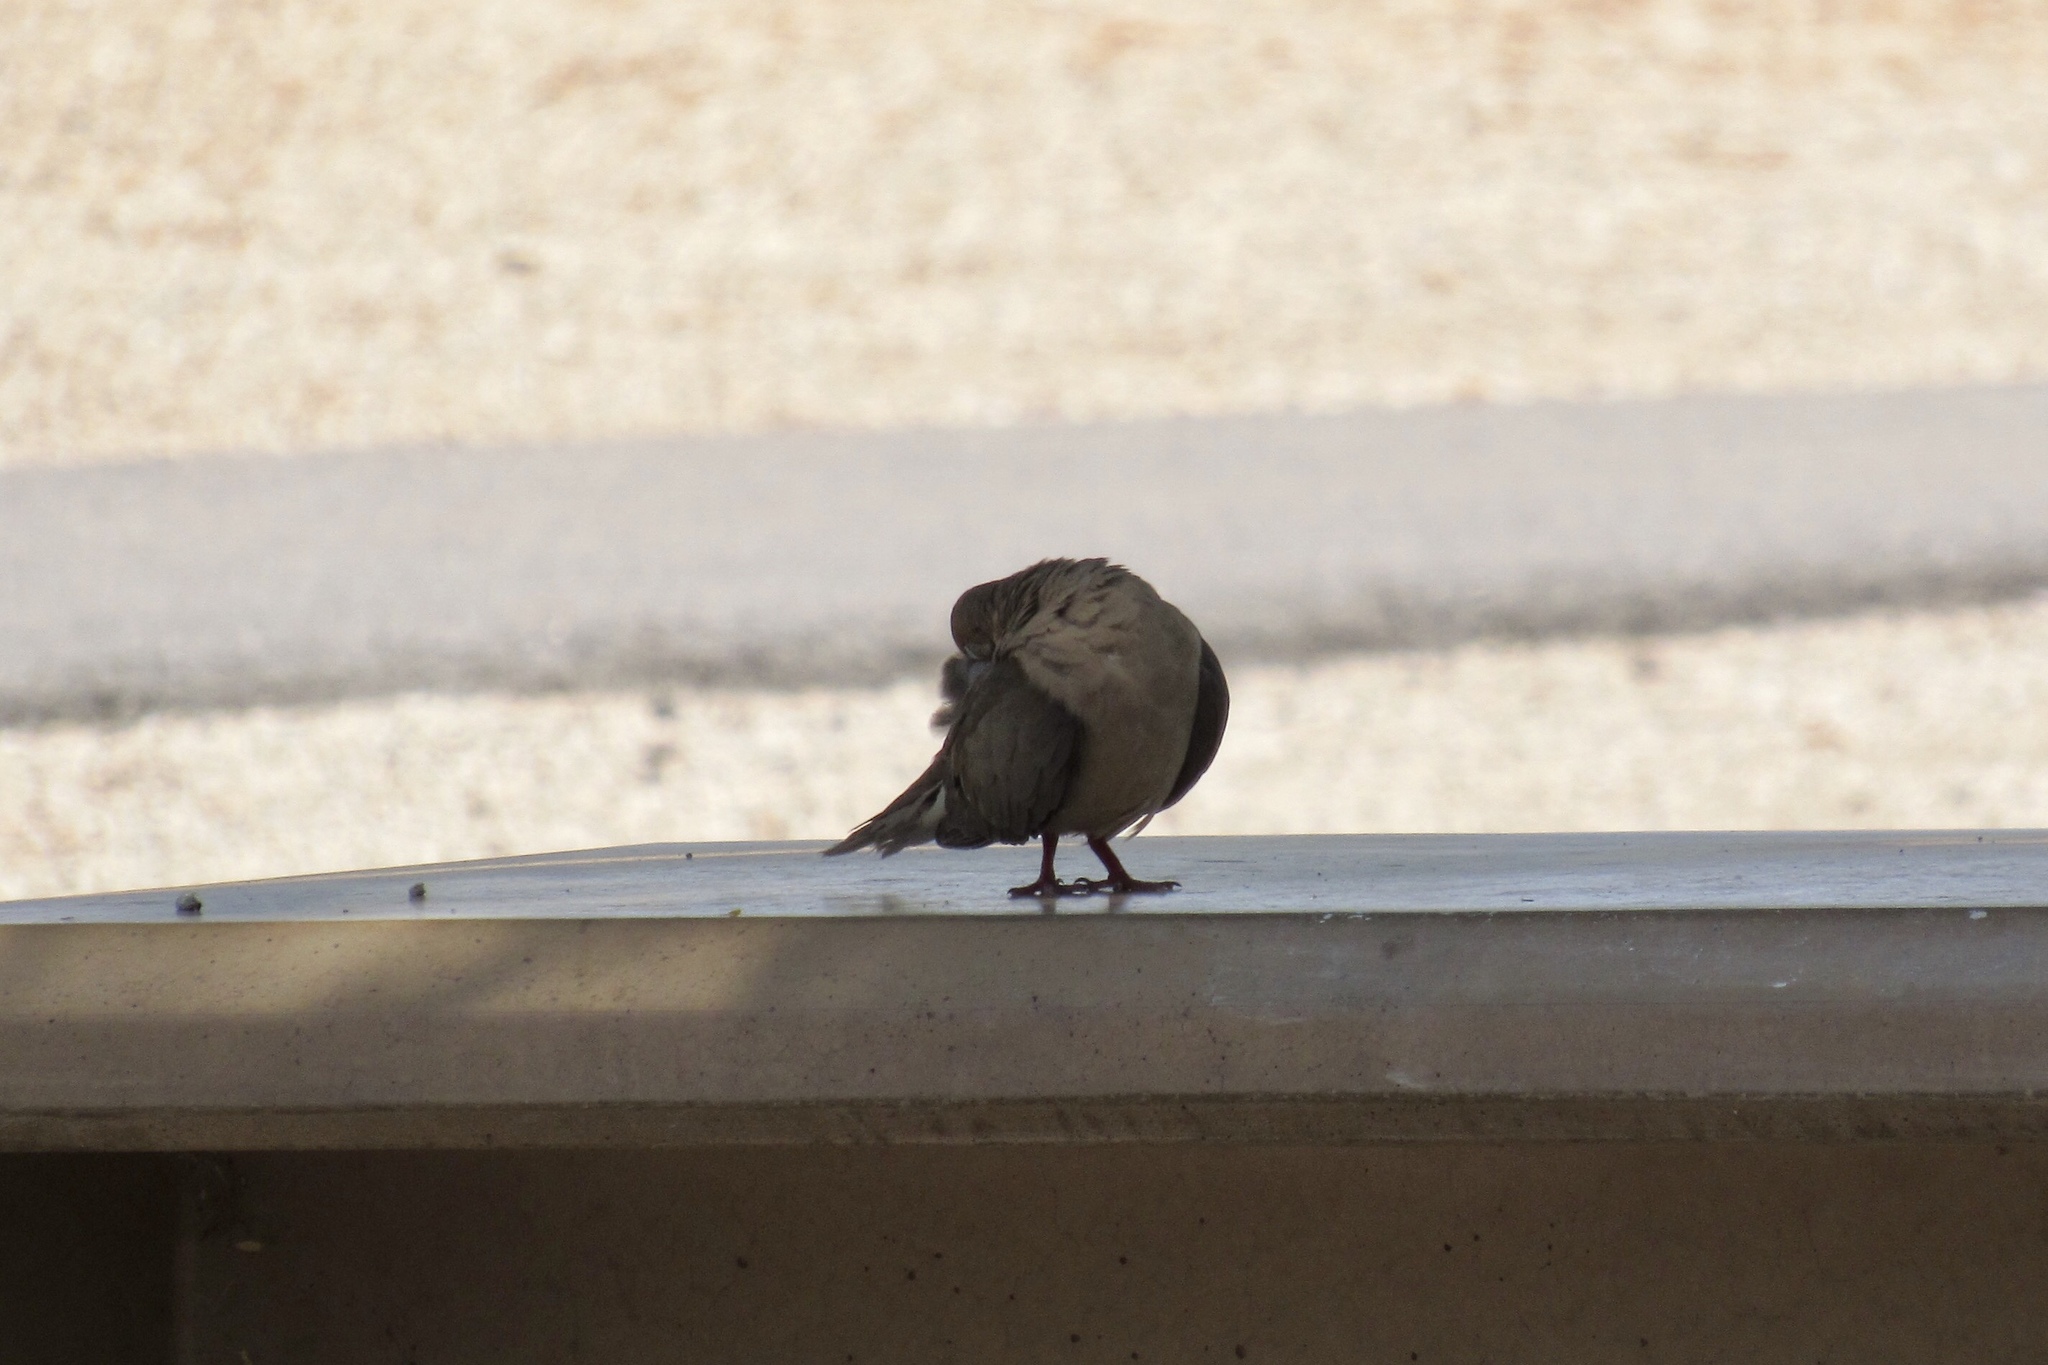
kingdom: Animalia
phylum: Chordata
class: Aves
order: Columbiformes
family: Columbidae
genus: Zenaida
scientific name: Zenaida macroura
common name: Mourning dove
